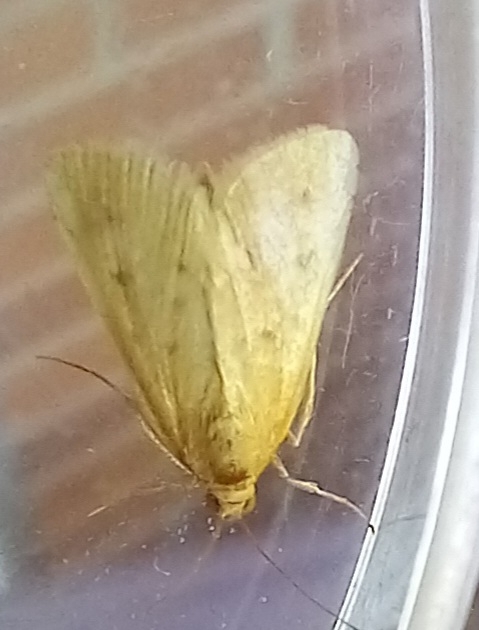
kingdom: Animalia
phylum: Arthropoda
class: Insecta
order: Lepidoptera
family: Crambidae
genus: Achyra
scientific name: Achyra nudalis
